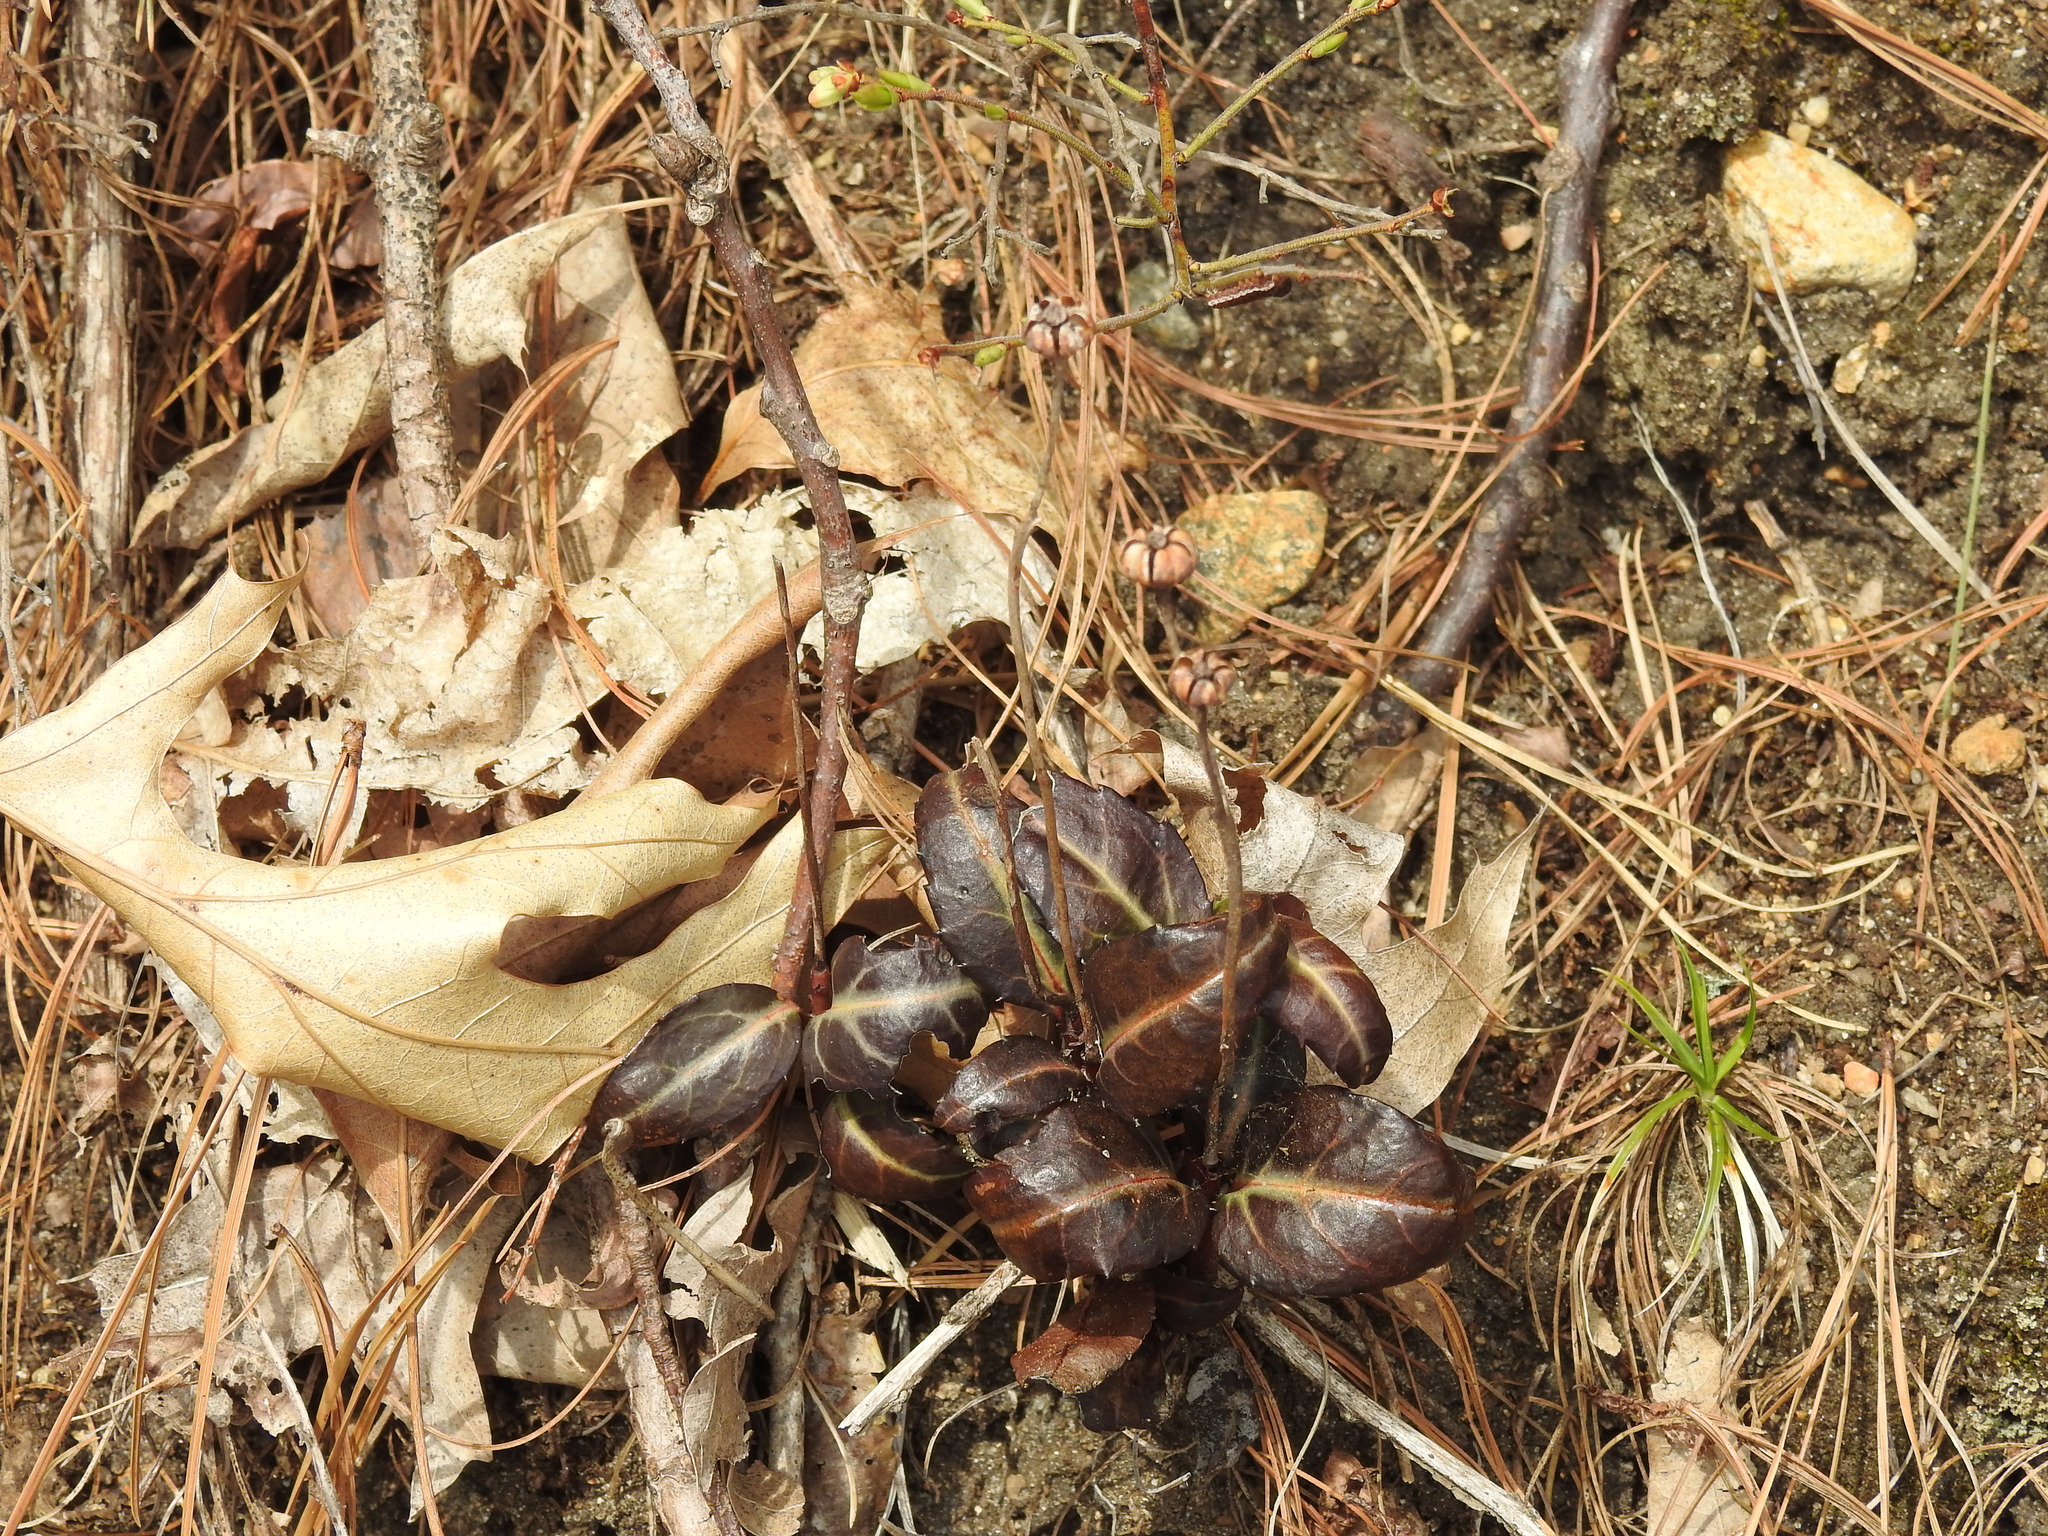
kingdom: Plantae
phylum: Tracheophyta
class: Magnoliopsida
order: Ericales
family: Ericaceae
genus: Chimaphila
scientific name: Chimaphila maculata
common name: Spotted pipsissewa
